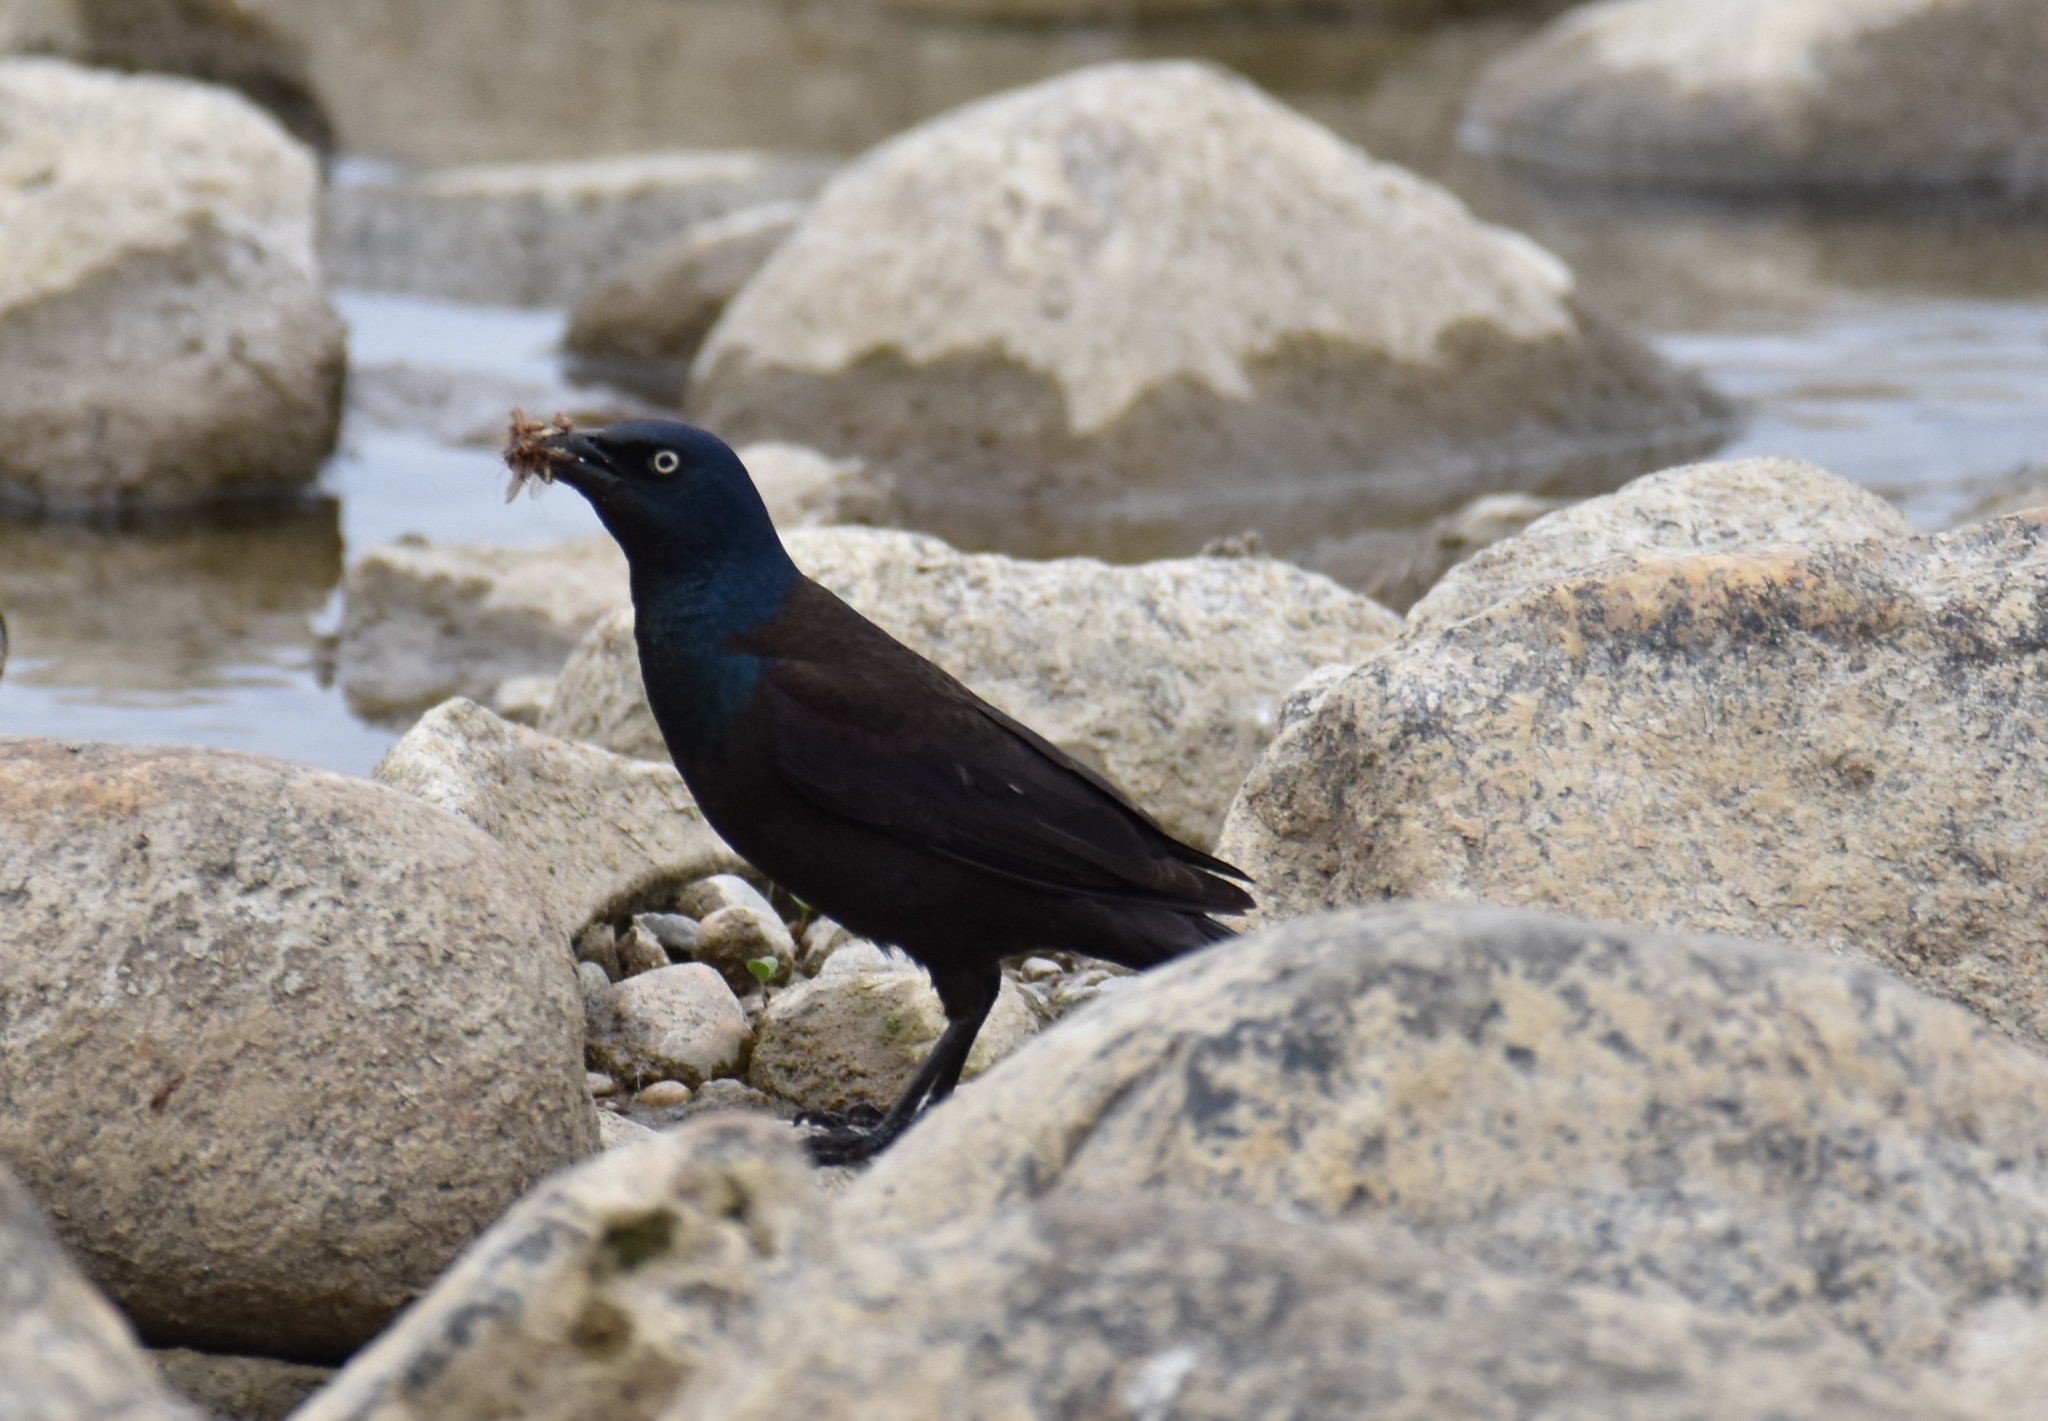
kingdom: Animalia
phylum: Chordata
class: Aves
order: Passeriformes
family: Icteridae
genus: Quiscalus
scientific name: Quiscalus quiscula
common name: Common grackle
